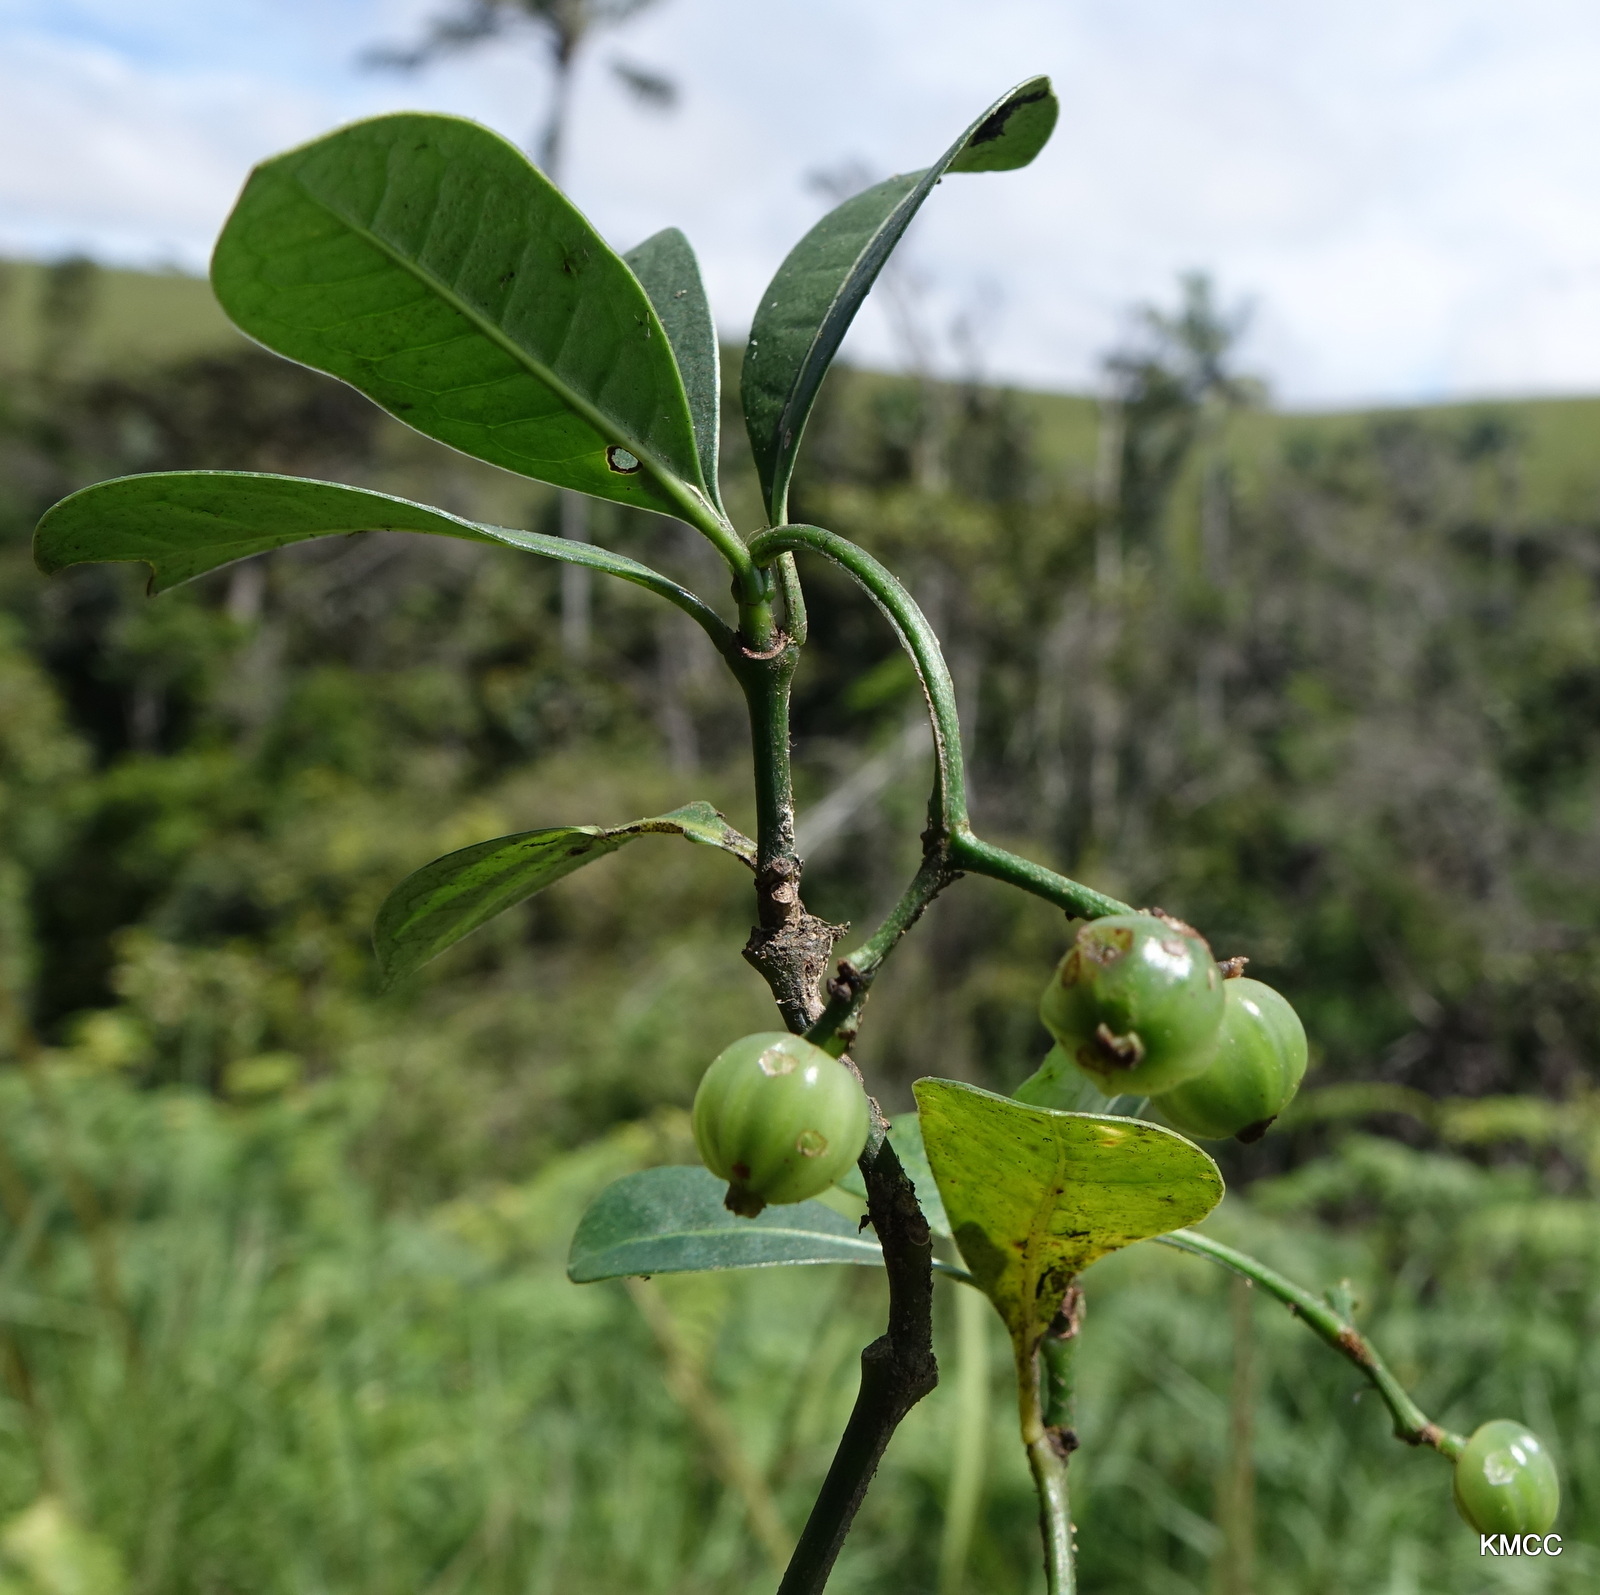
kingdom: Plantae
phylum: Tracheophyta
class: Magnoliopsida
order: Gentianales
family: Rubiaceae
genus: Psychotria
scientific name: Psychotria parkeri
